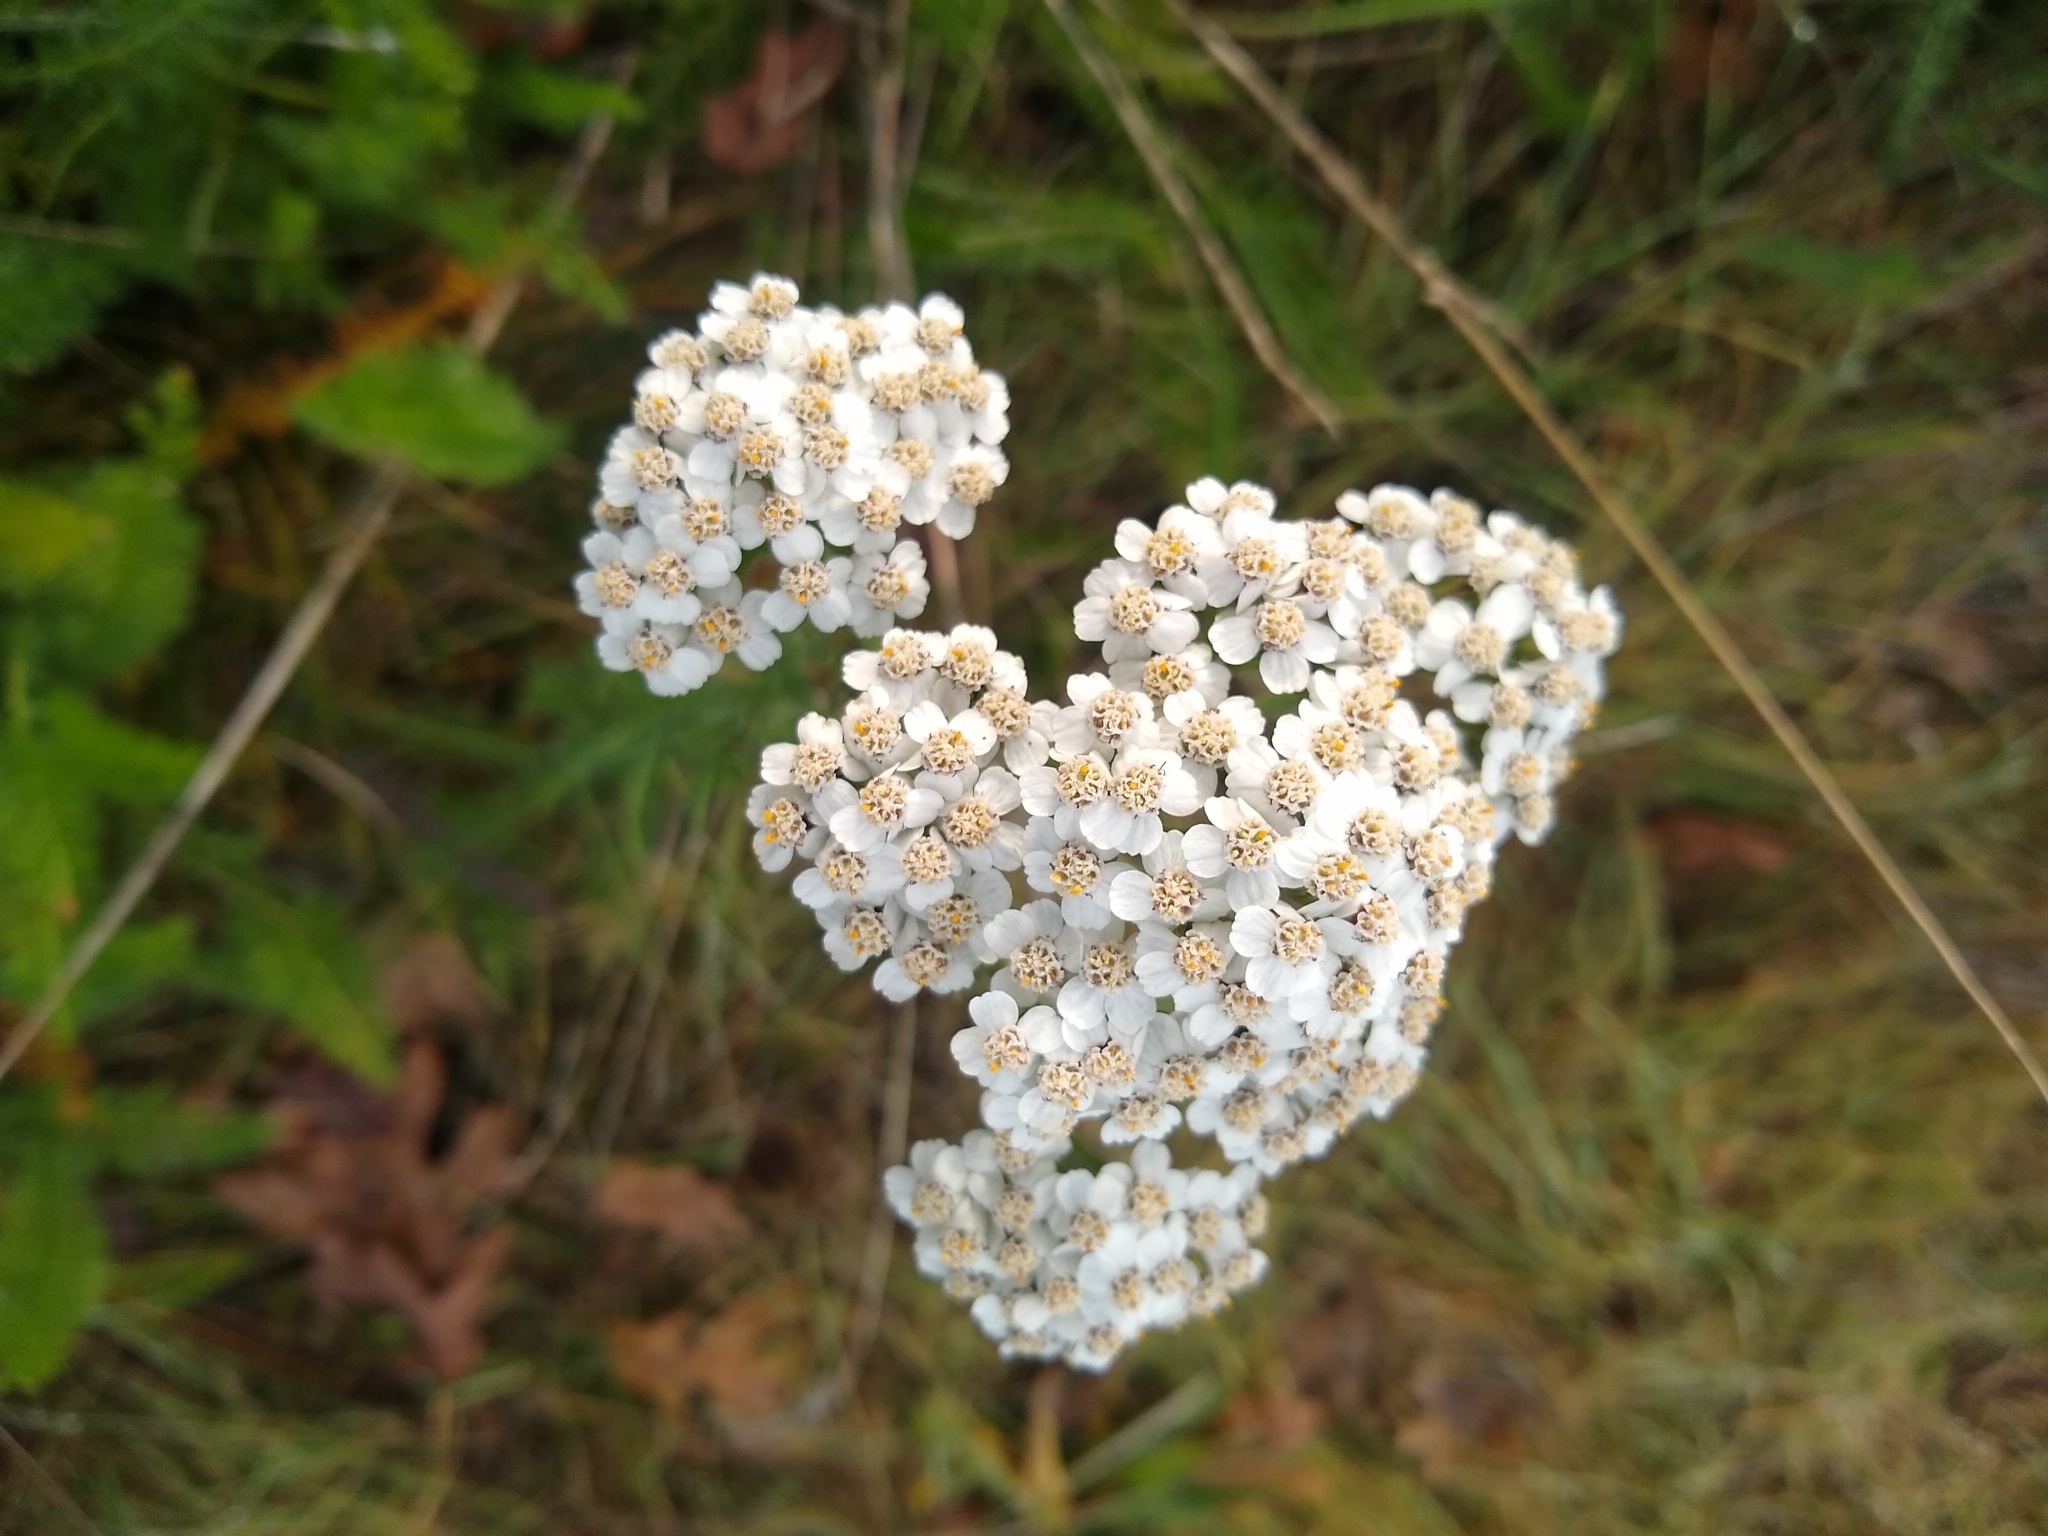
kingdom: Plantae
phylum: Tracheophyta
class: Magnoliopsida
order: Asterales
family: Asteraceae
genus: Achillea
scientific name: Achillea millefolium
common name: Yarrow
